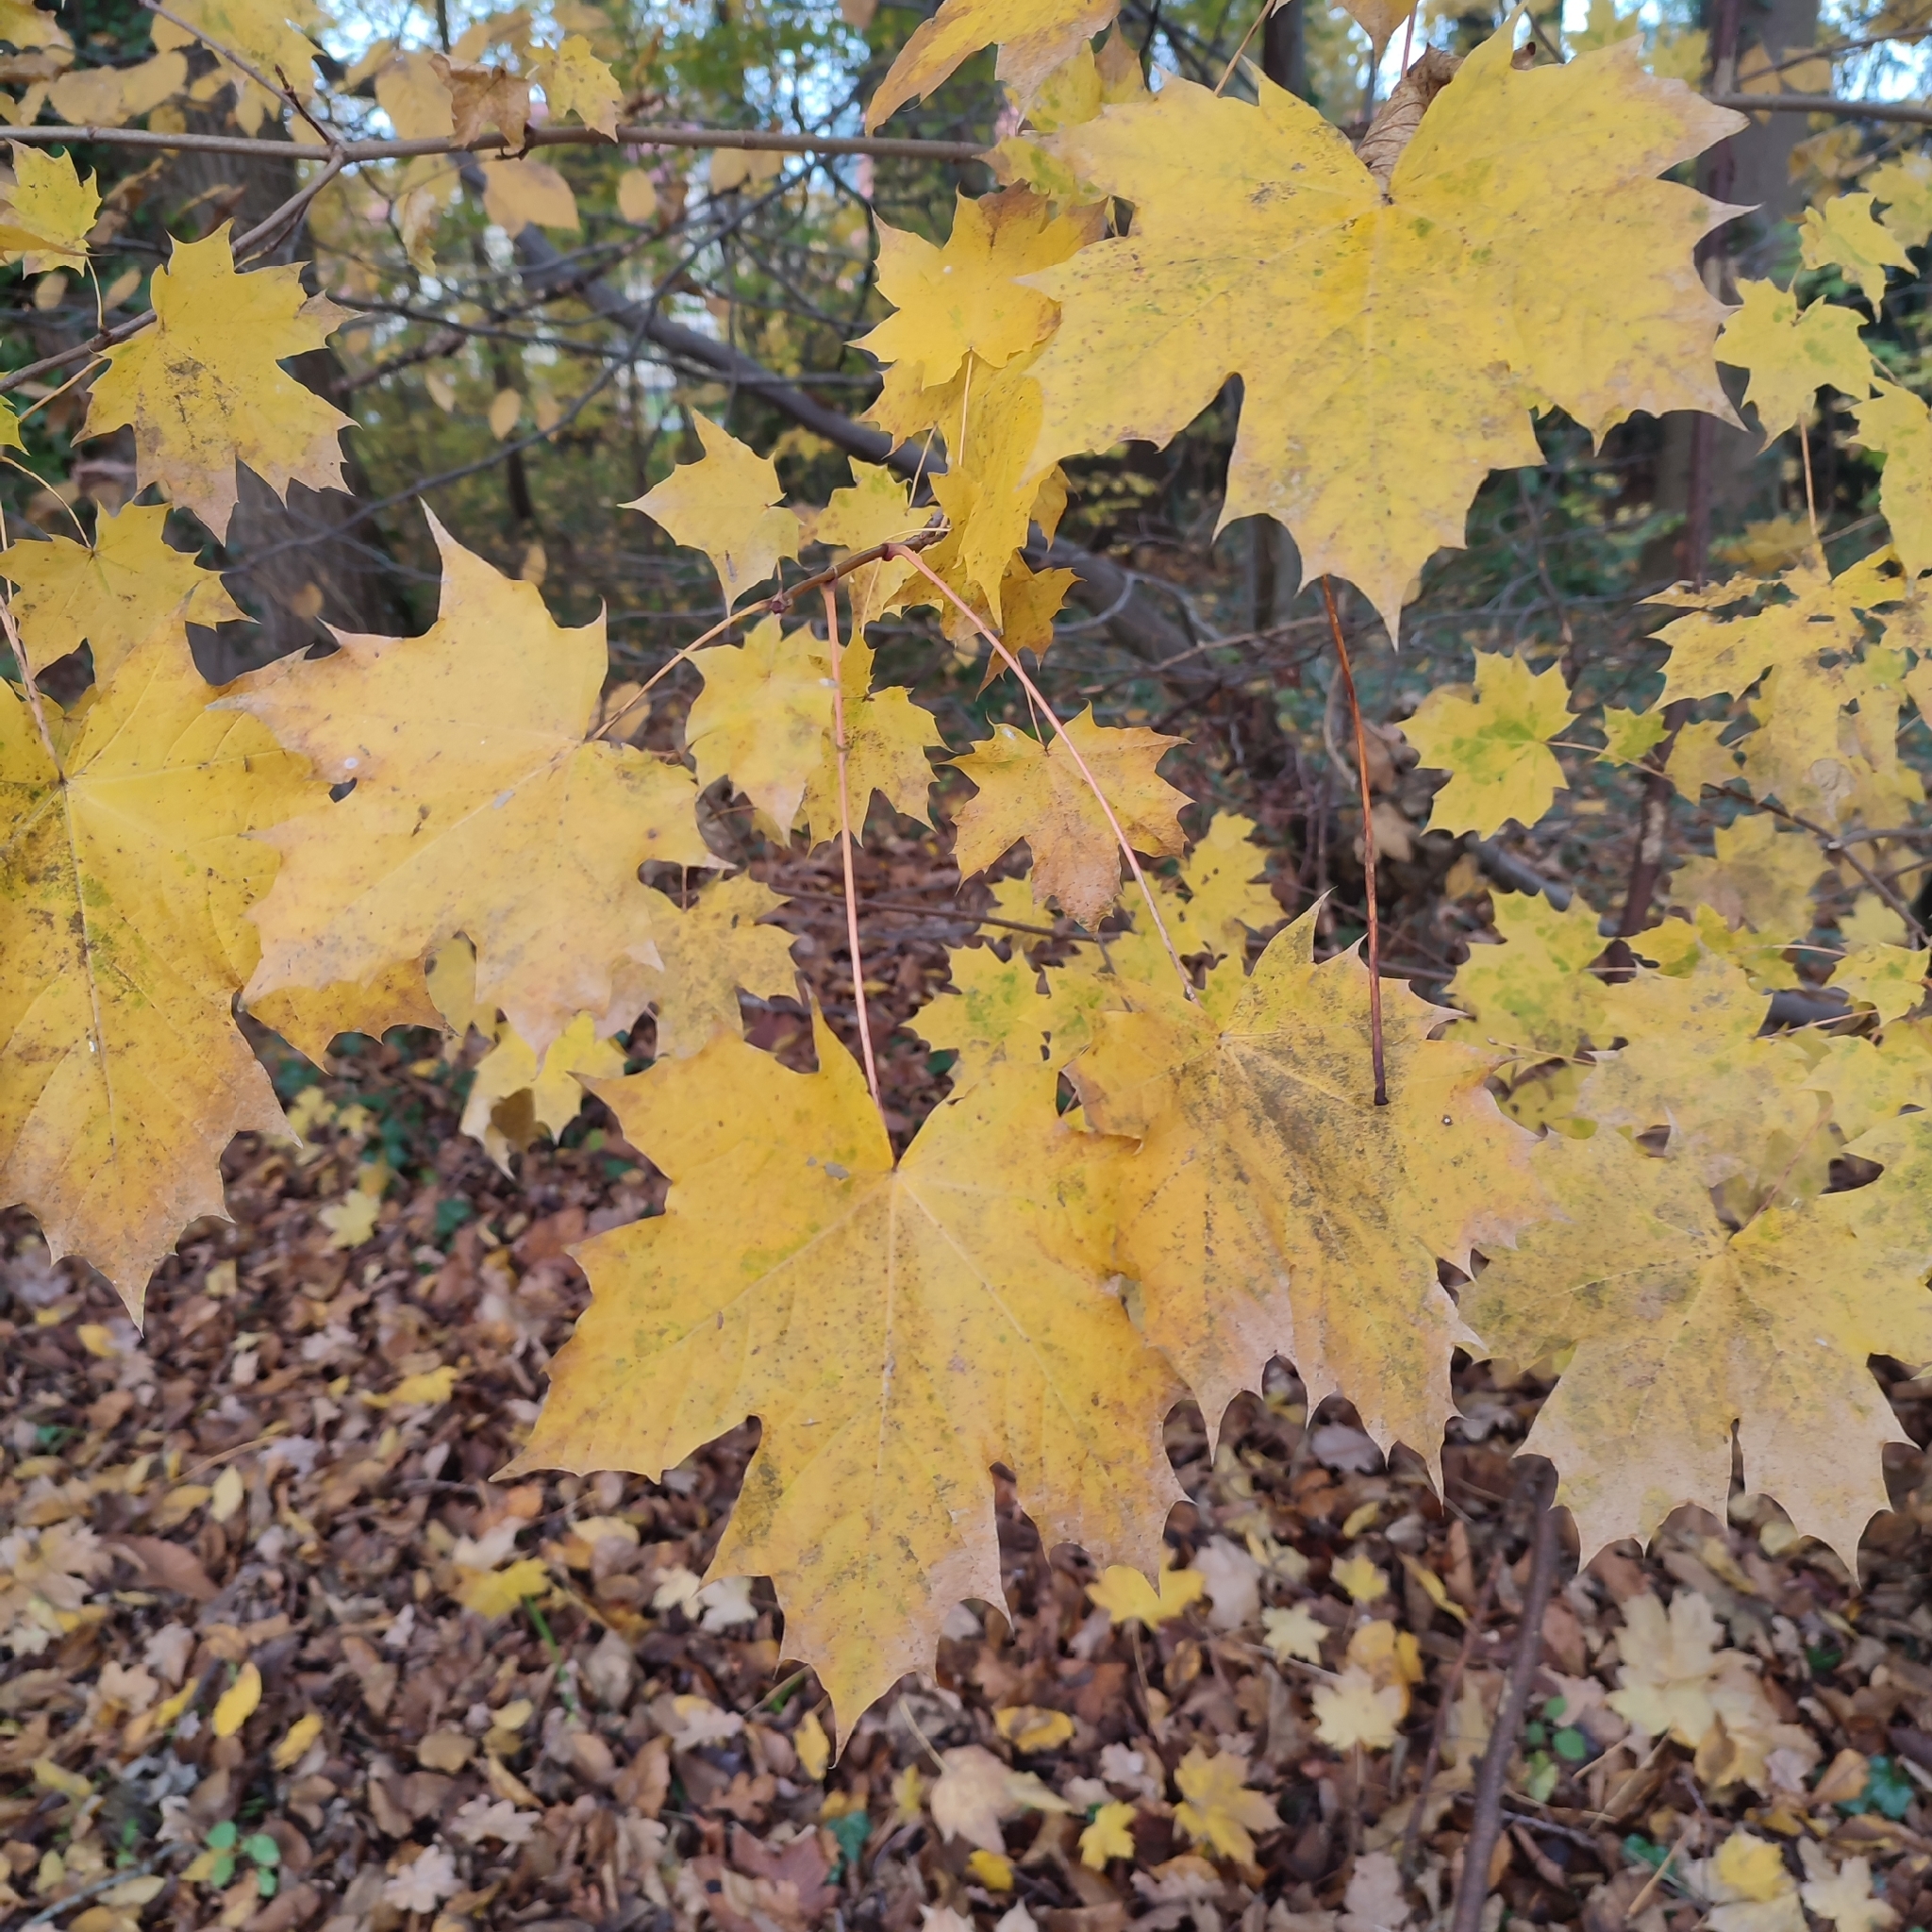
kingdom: Plantae
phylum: Tracheophyta
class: Magnoliopsida
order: Sapindales
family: Sapindaceae
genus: Acer
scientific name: Acer platanoides
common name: Norway maple
